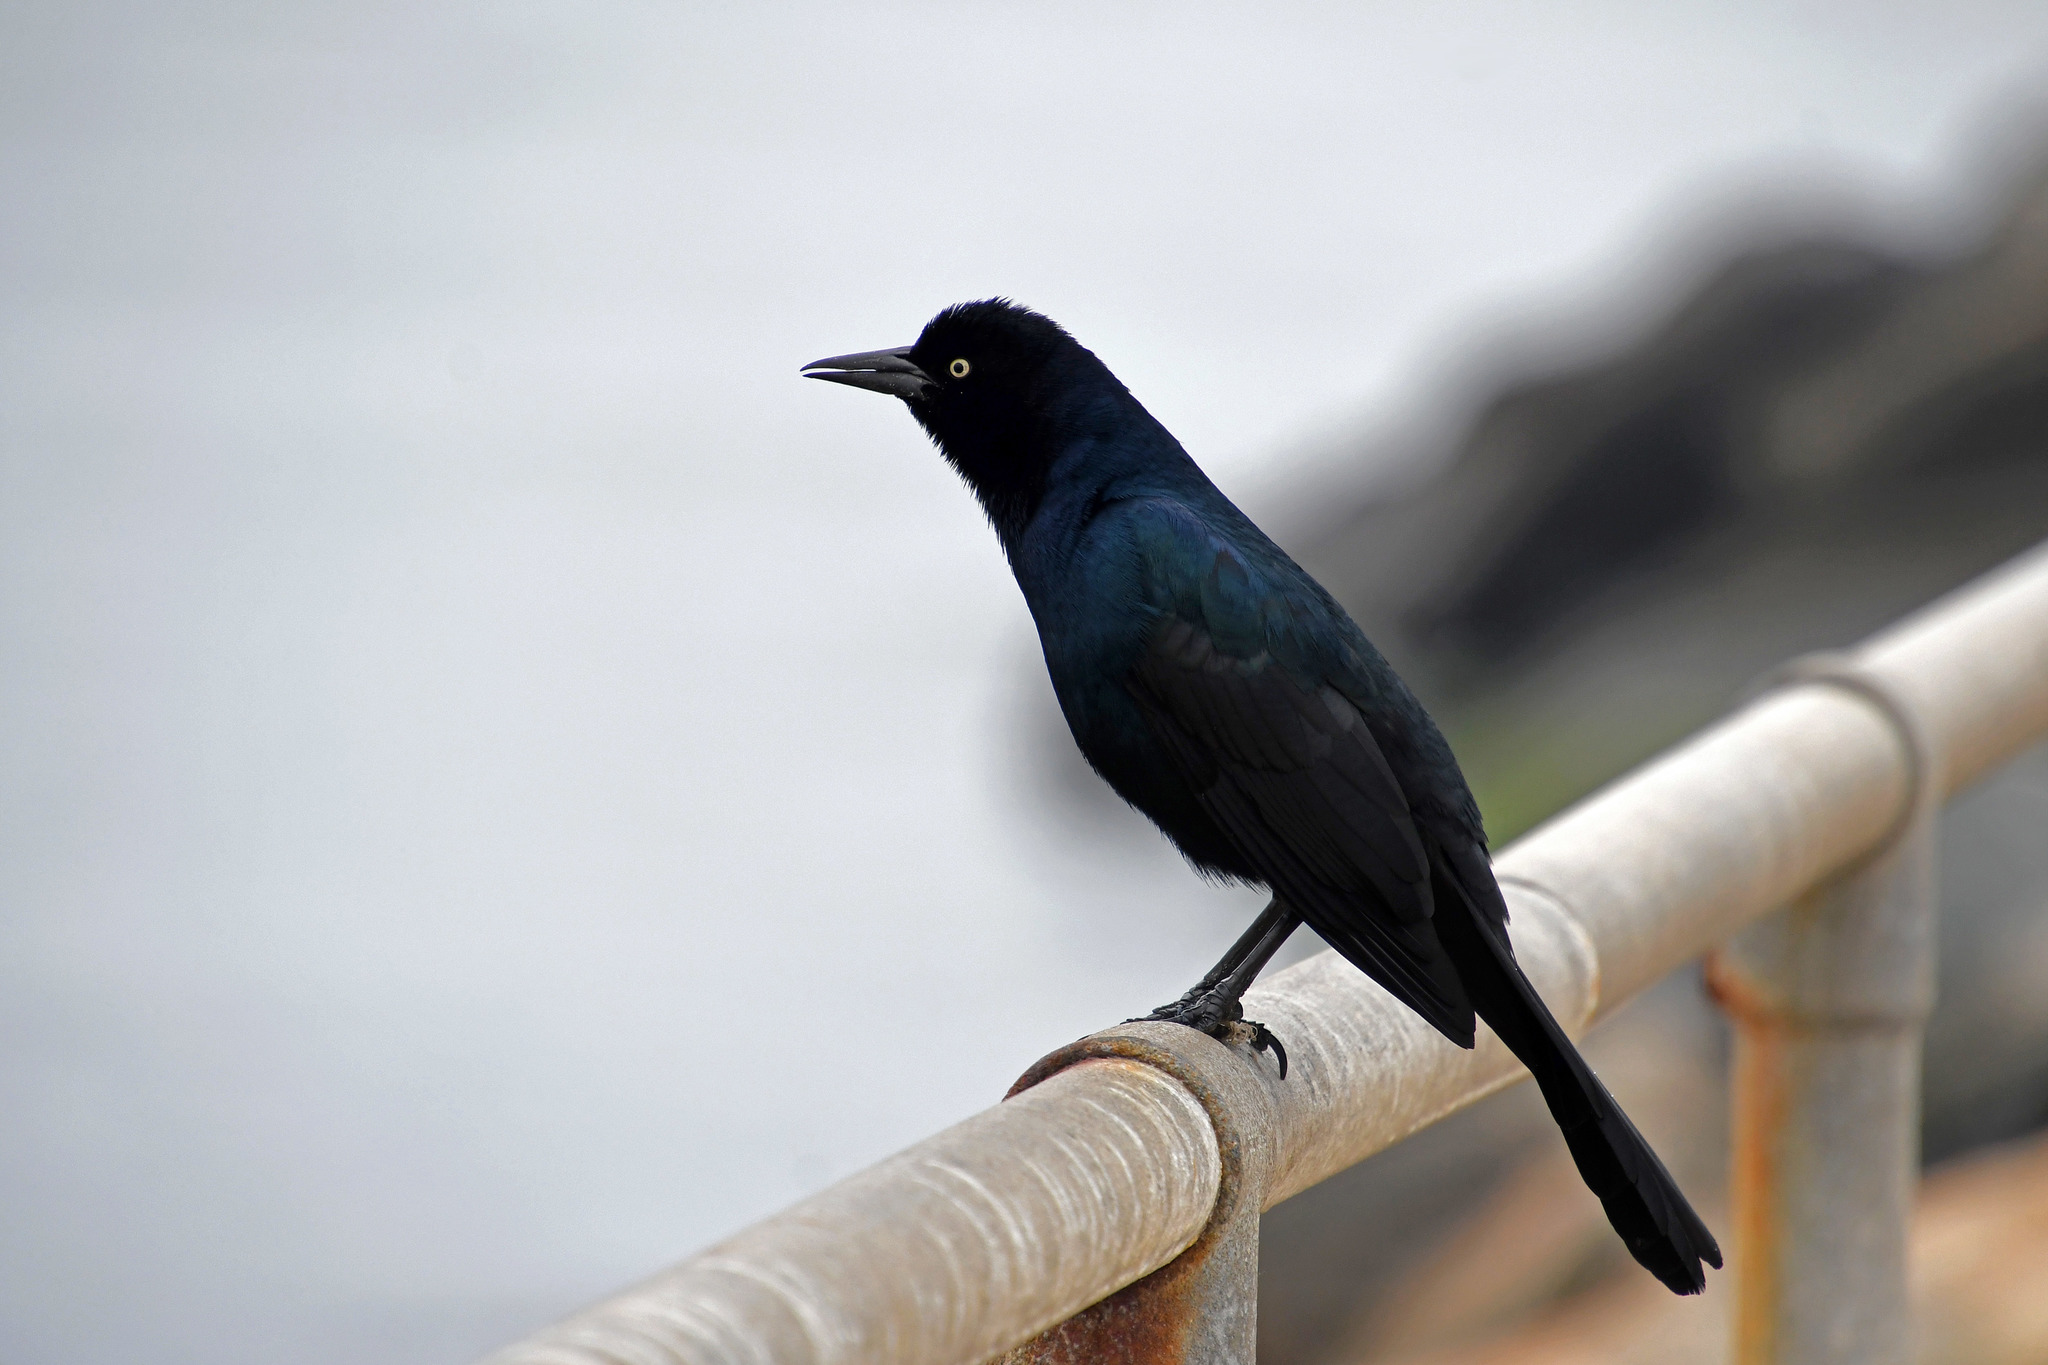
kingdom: Animalia
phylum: Chordata
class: Aves
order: Passeriformes
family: Icteridae
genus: Quiscalus
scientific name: Quiscalus major
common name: Boat-tailed grackle
